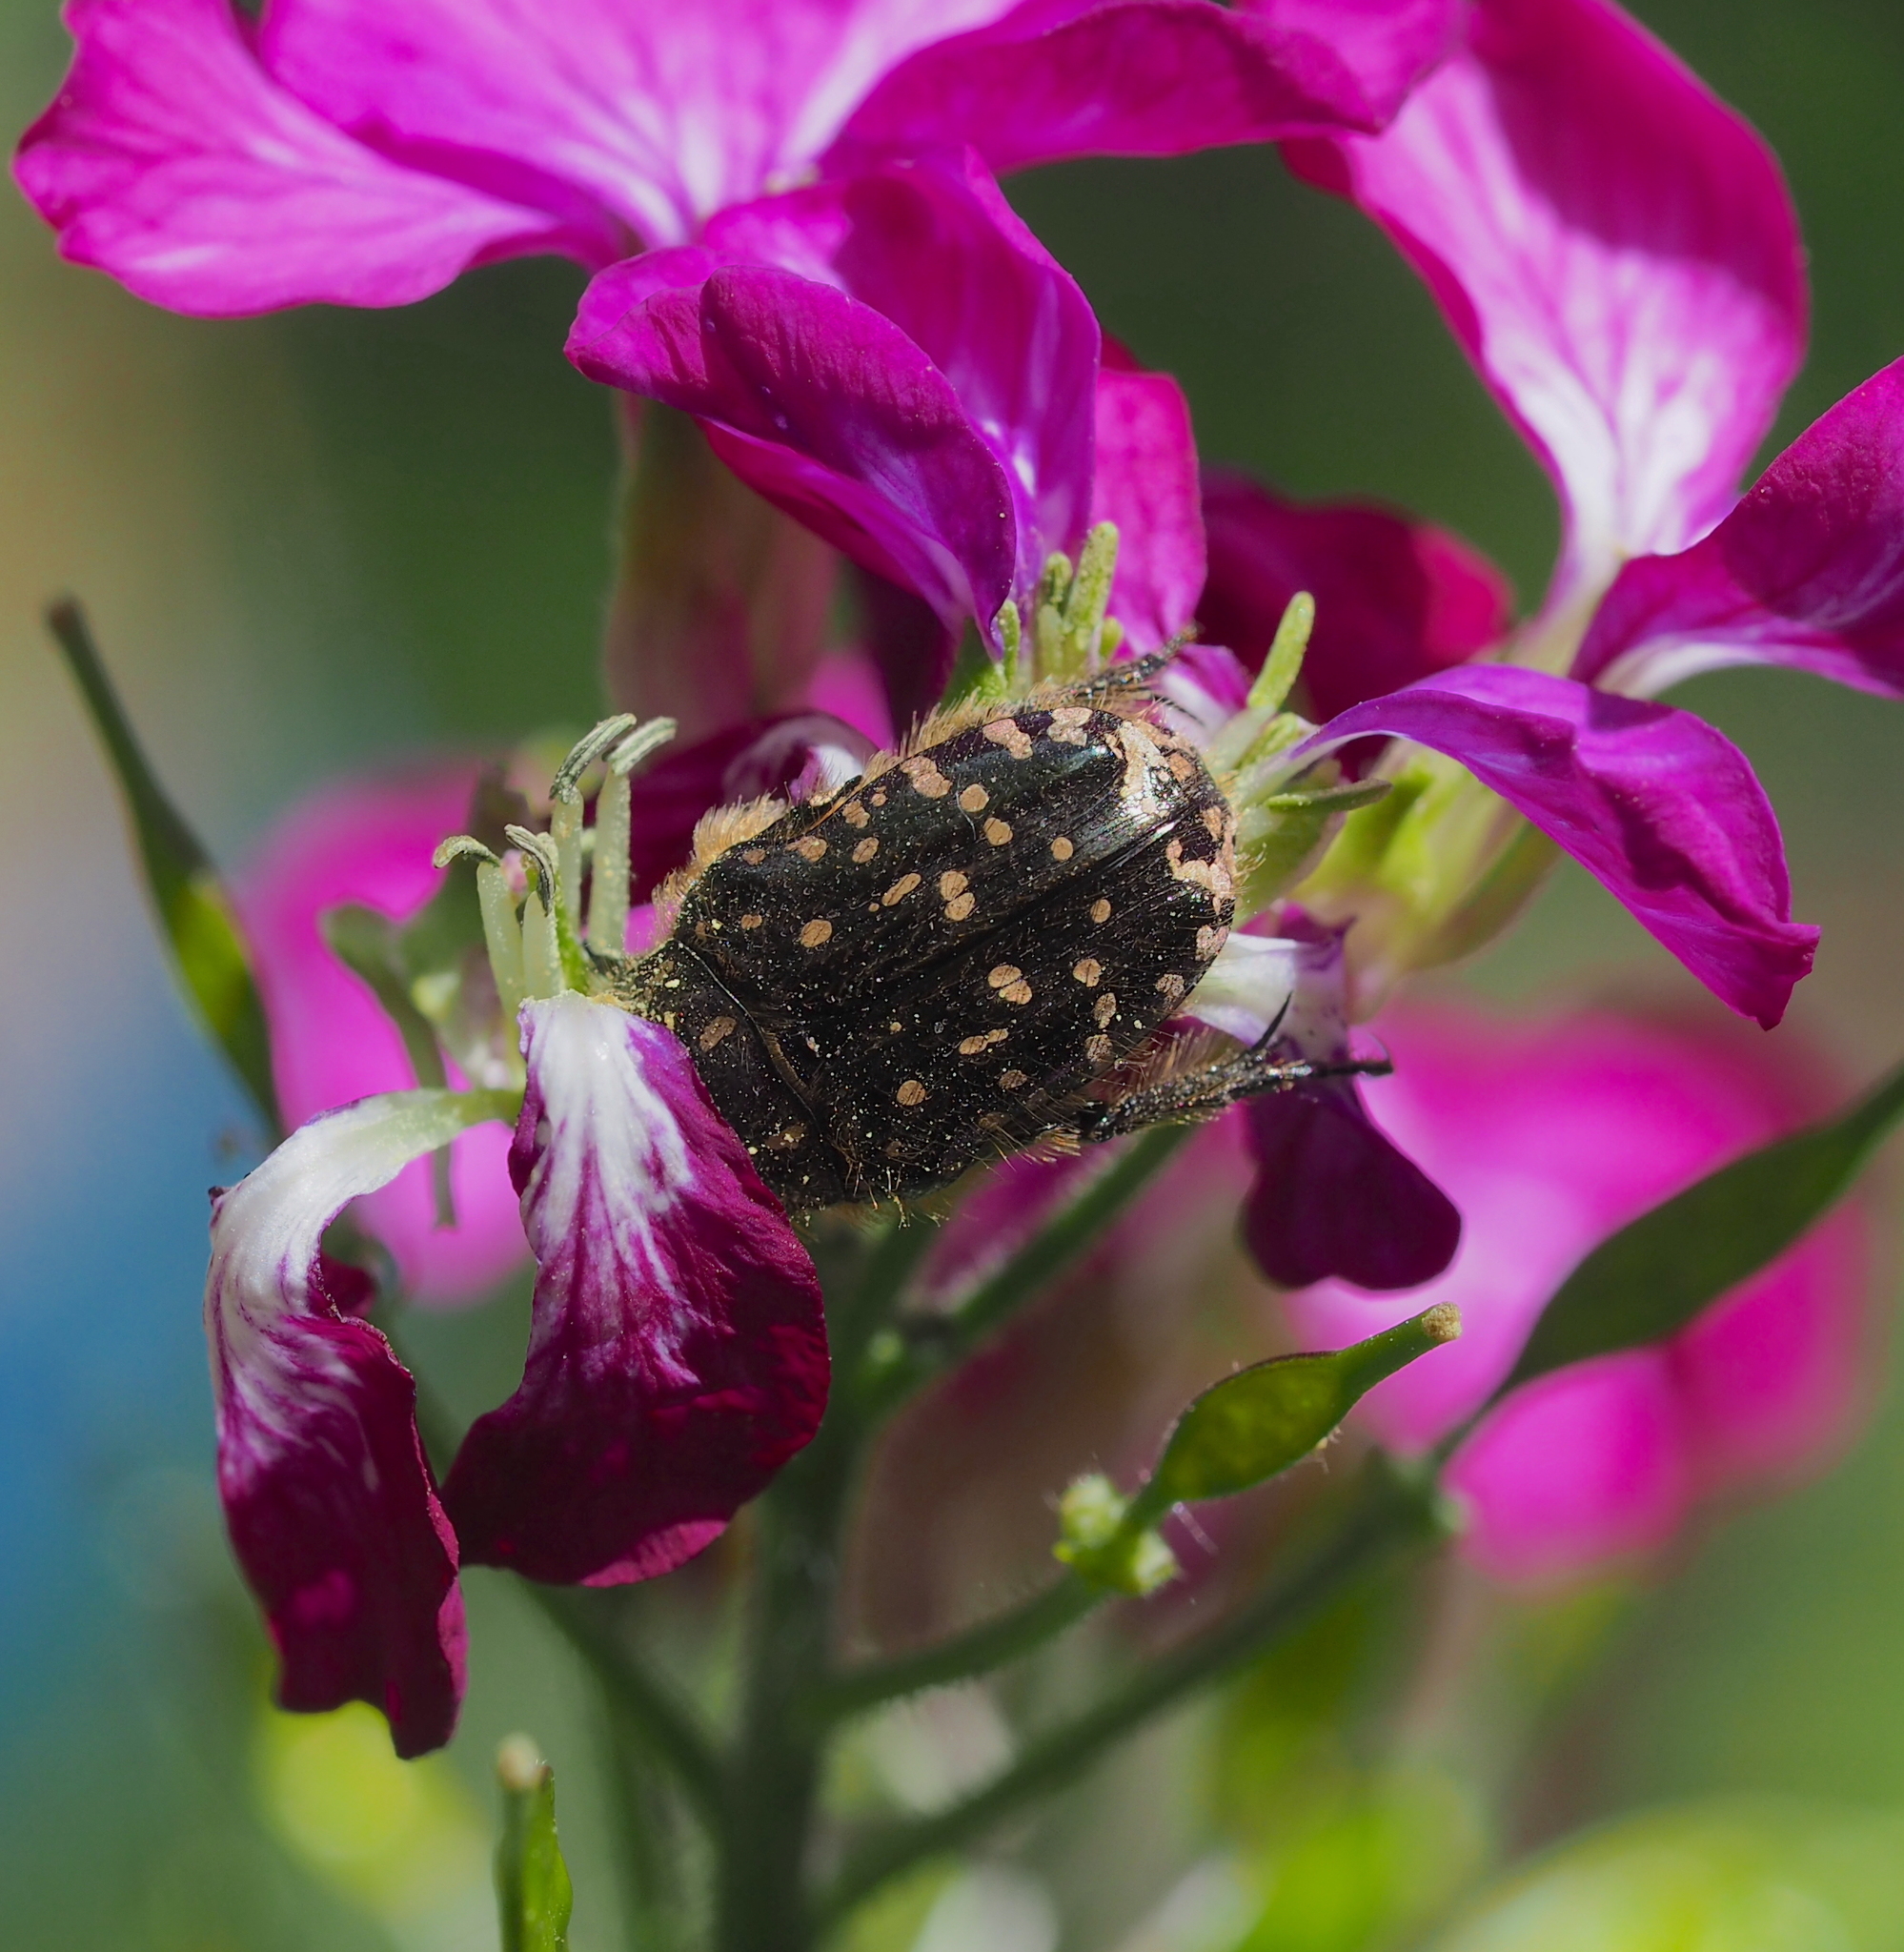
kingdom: Animalia
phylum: Arthropoda
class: Insecta
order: Coleoptera
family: Scarabaeidae
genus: Oxythyrea
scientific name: Oxythyrea funesta
